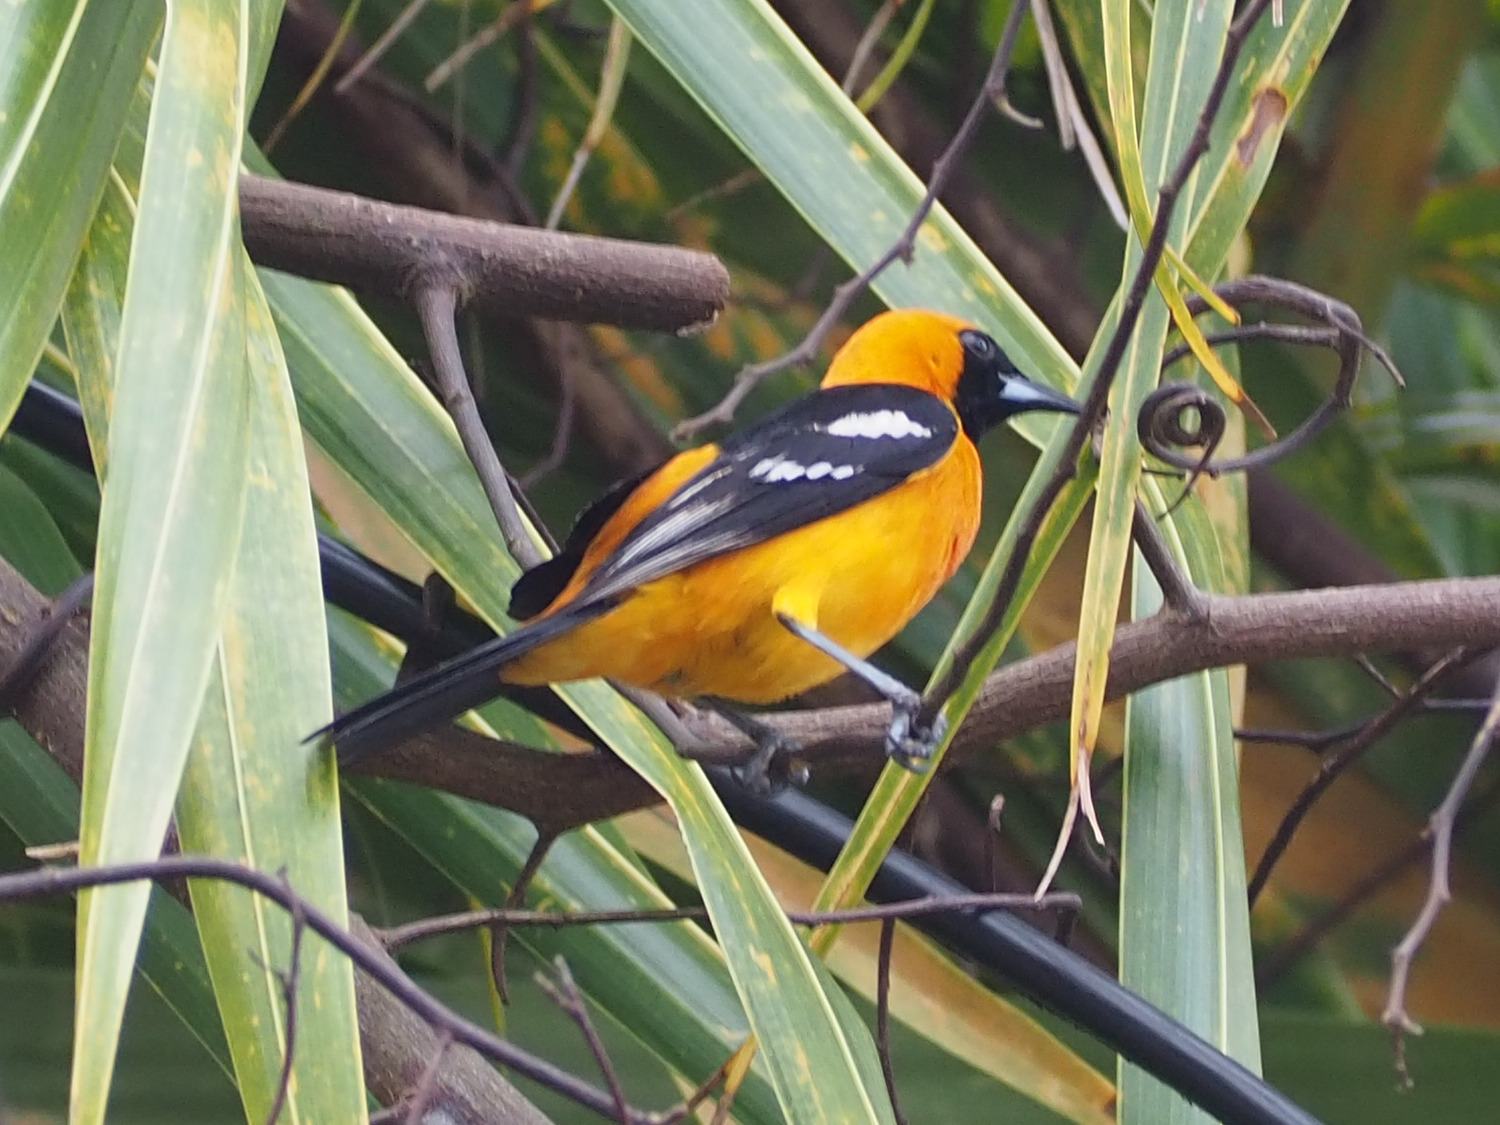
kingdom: Animalia
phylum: Chordata
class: Aves
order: Passeriformes
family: Icteridae
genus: Icterus
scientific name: Icterus cucullatus
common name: Hooded oriole
